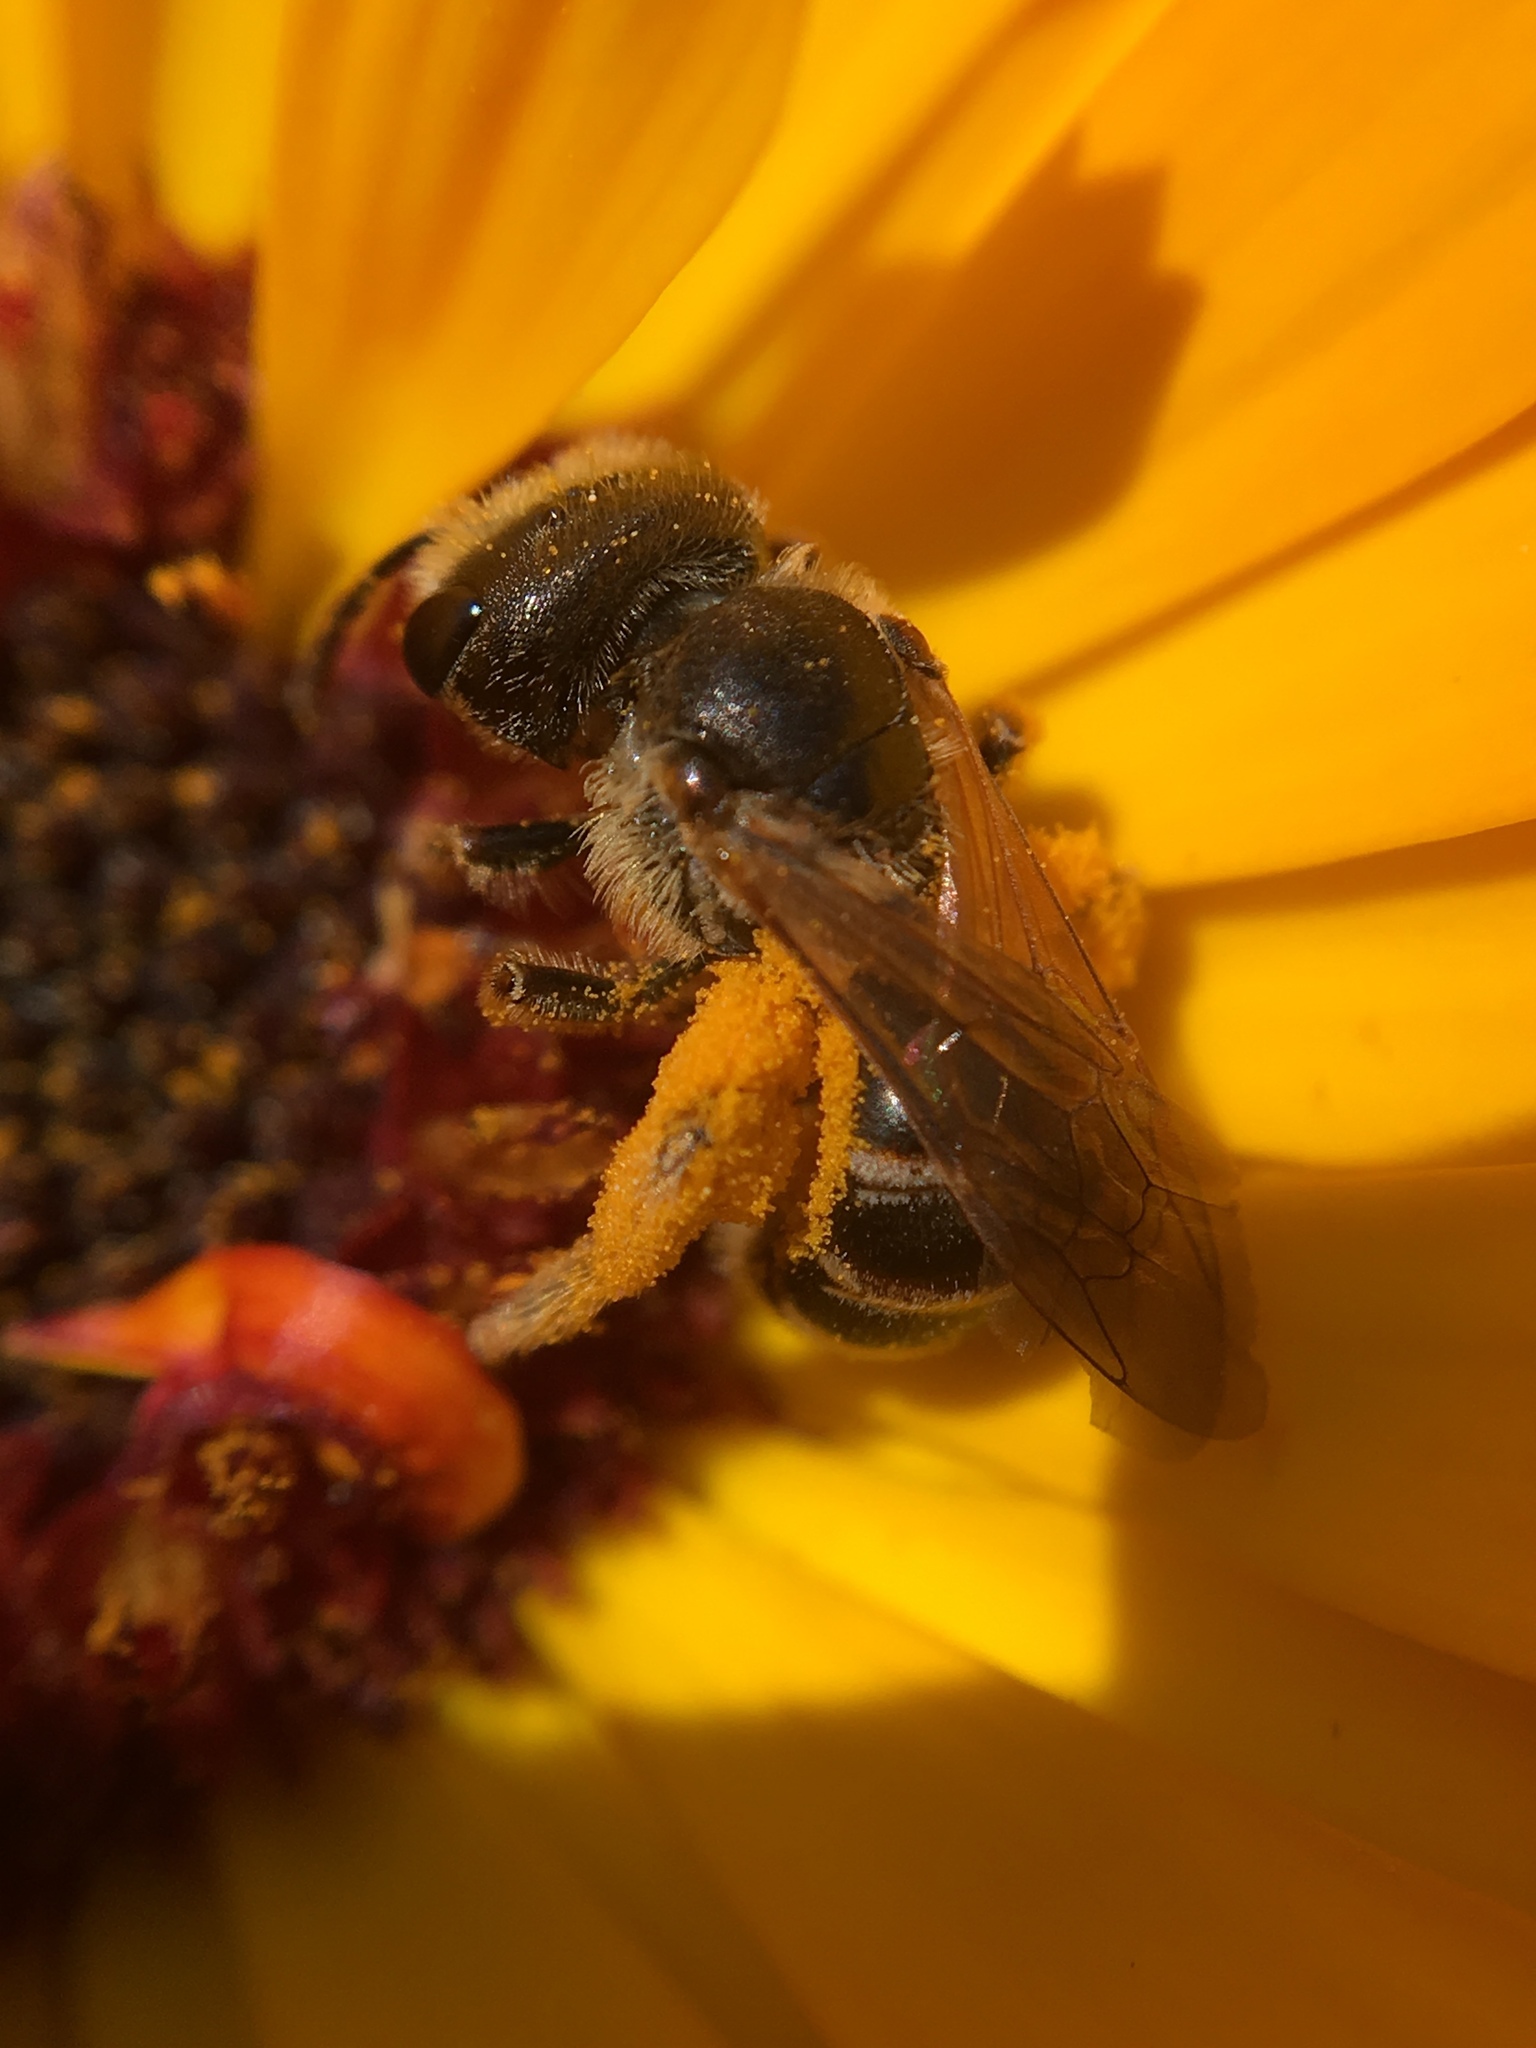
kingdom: Animalia
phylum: Arthropoda
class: Insecta
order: Hymenoptera
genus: Odontalictus
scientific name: Odontalictus
